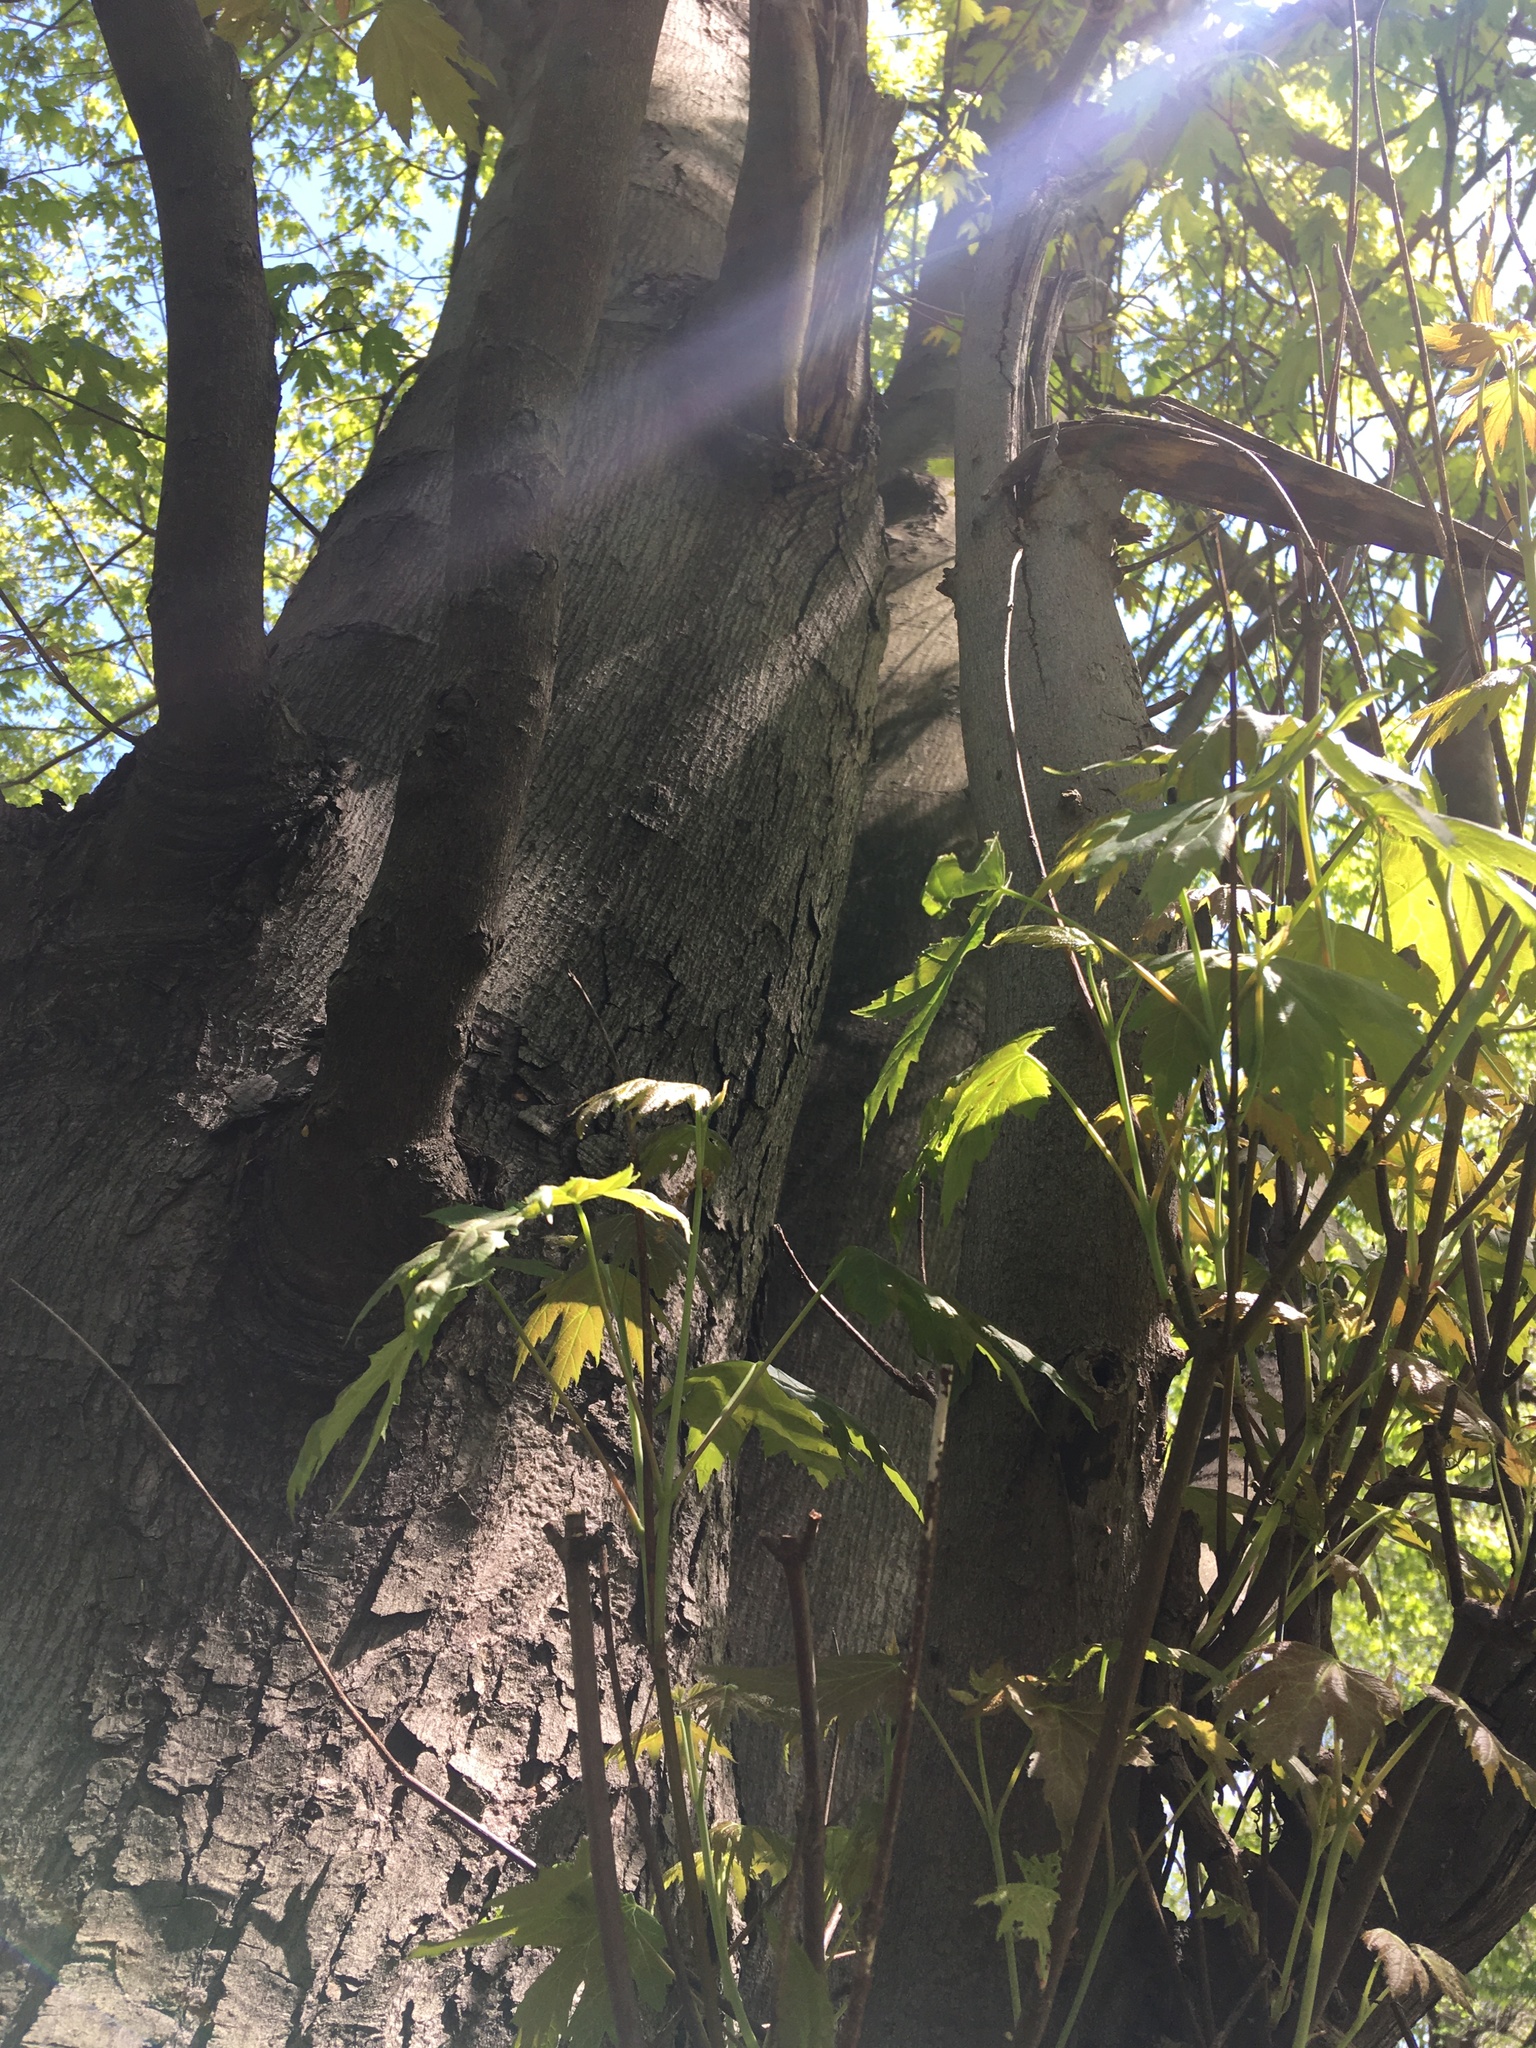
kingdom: Plantae
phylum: Tracheophyta
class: Magnoliopsida
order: Sapindales
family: Sapindaceae
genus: Acer
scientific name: Acer saccharinum
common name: Silver maple
